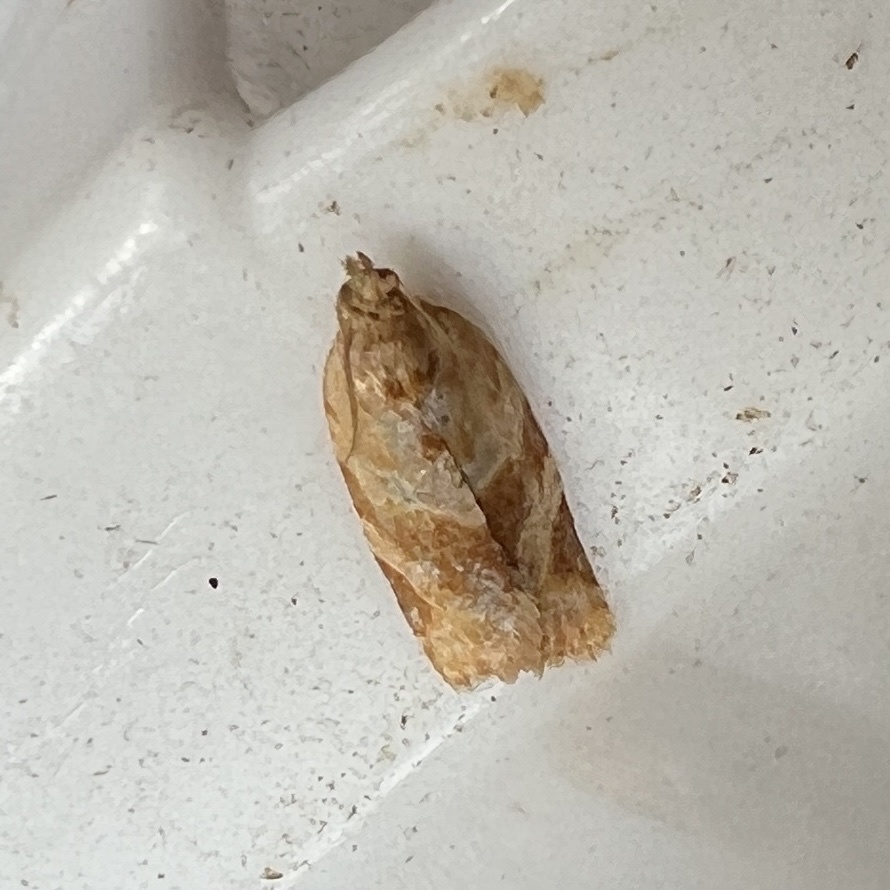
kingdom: Animalia
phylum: Arthropoda
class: Insecta
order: Lepidoptera
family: Tortricidae
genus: Clepsis
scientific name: Clepsis peritana
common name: Garden tortrix
